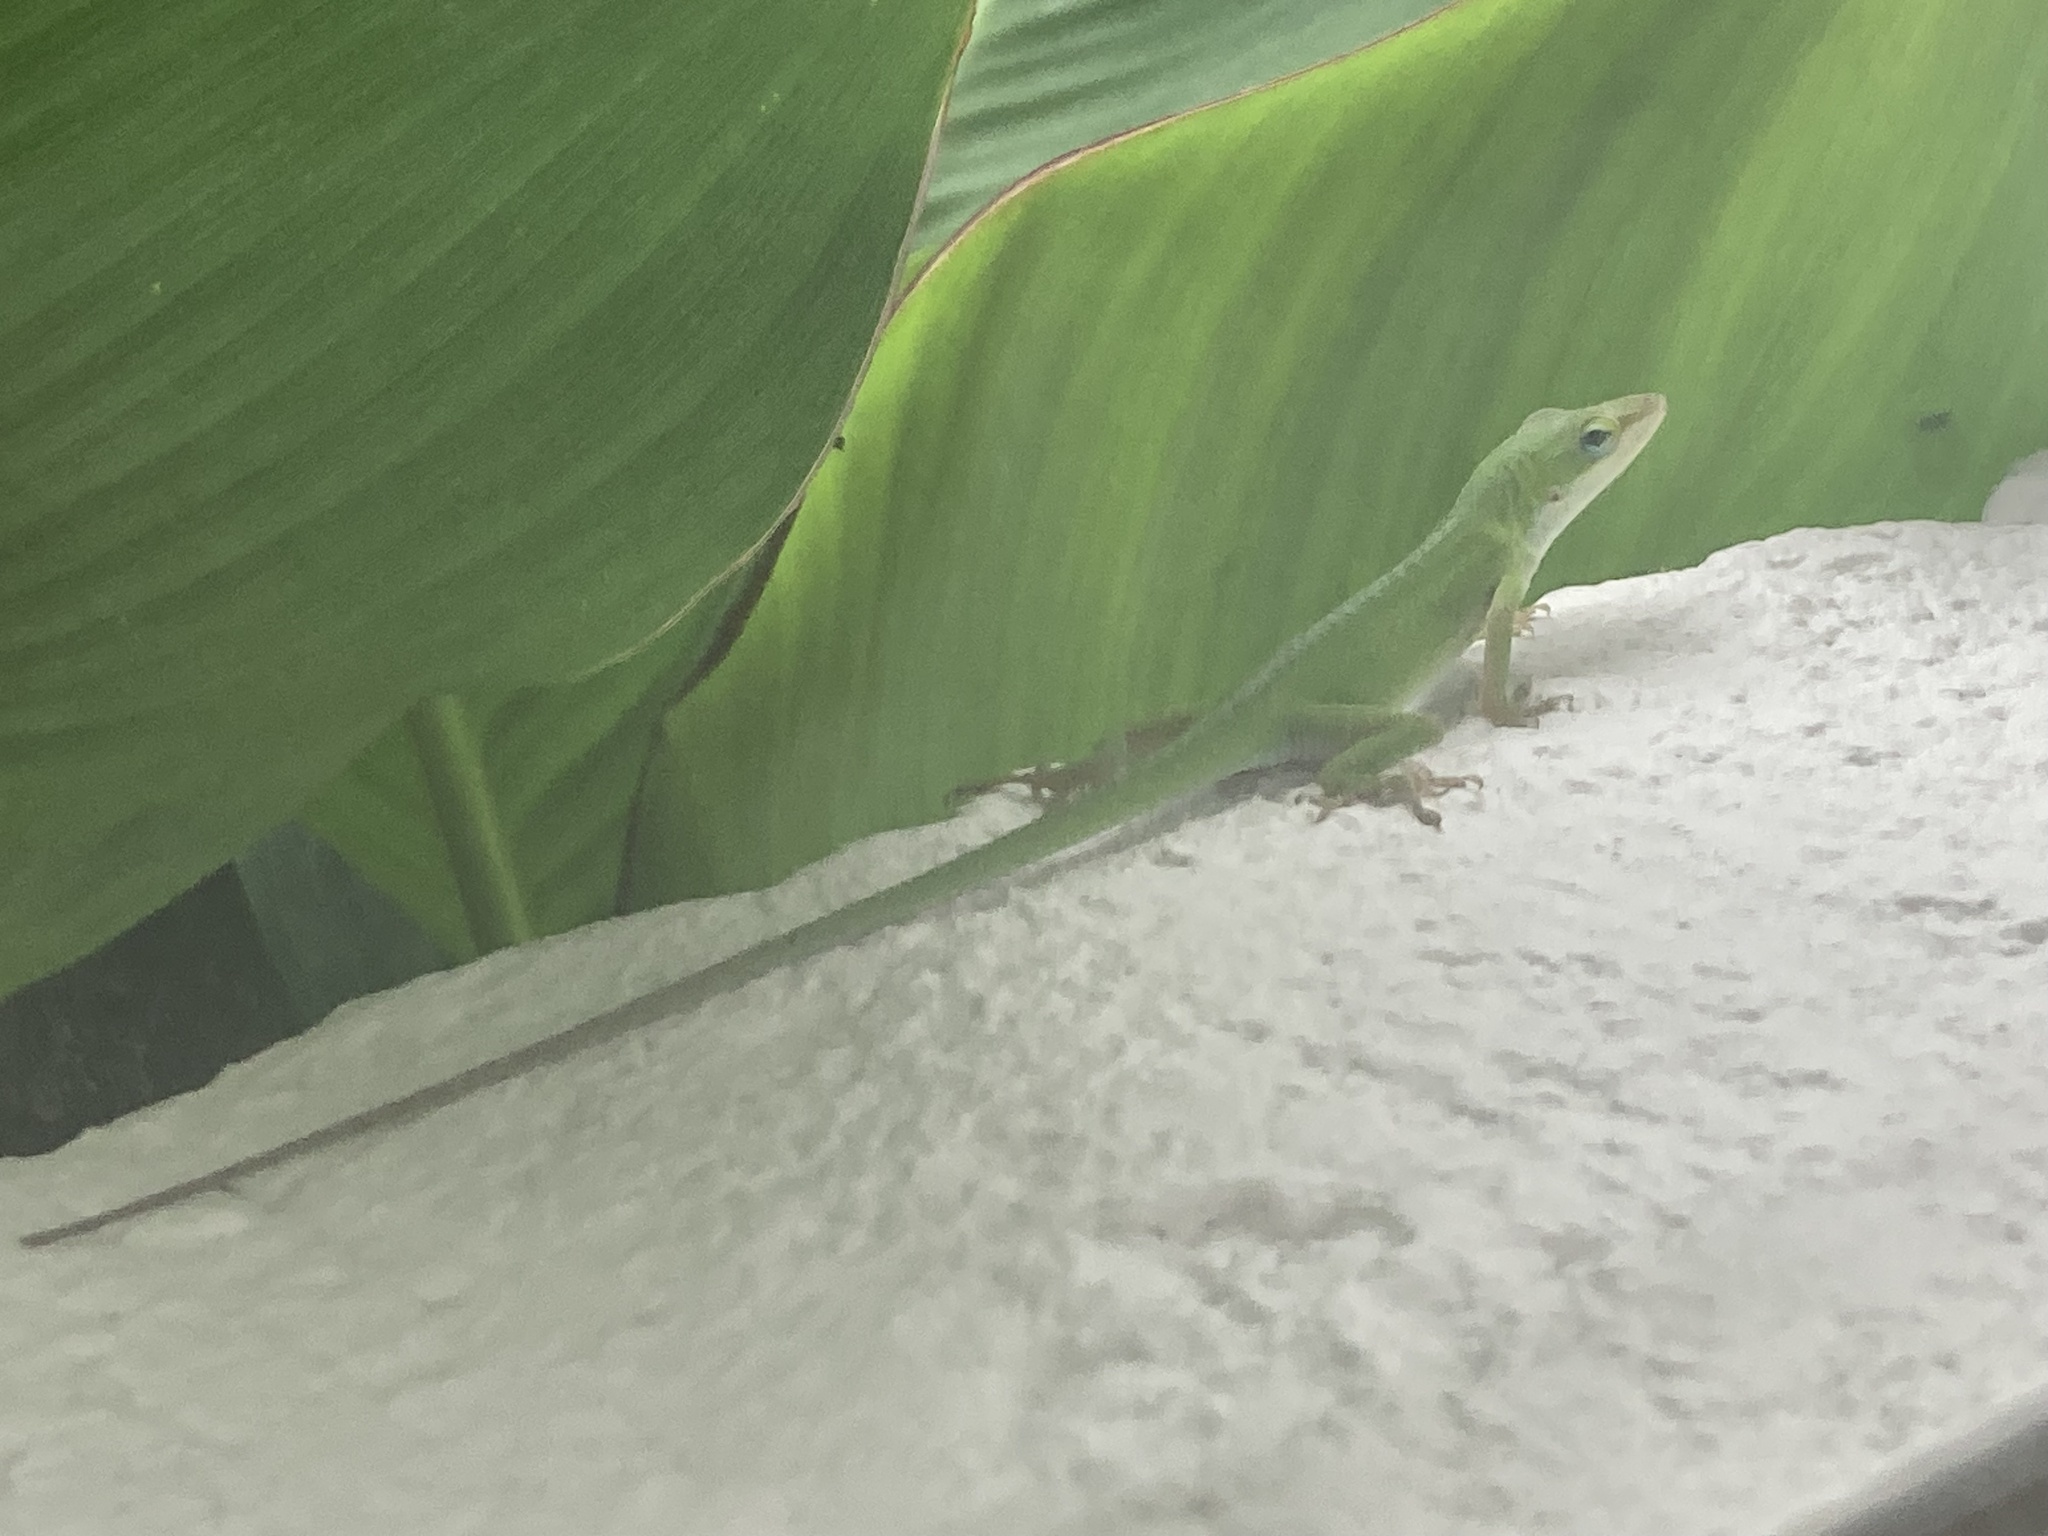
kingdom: Animalia
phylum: Chordata
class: Squamata
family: Dactyloidae
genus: Anolis
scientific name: Anolis carolinensis
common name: Green anole
